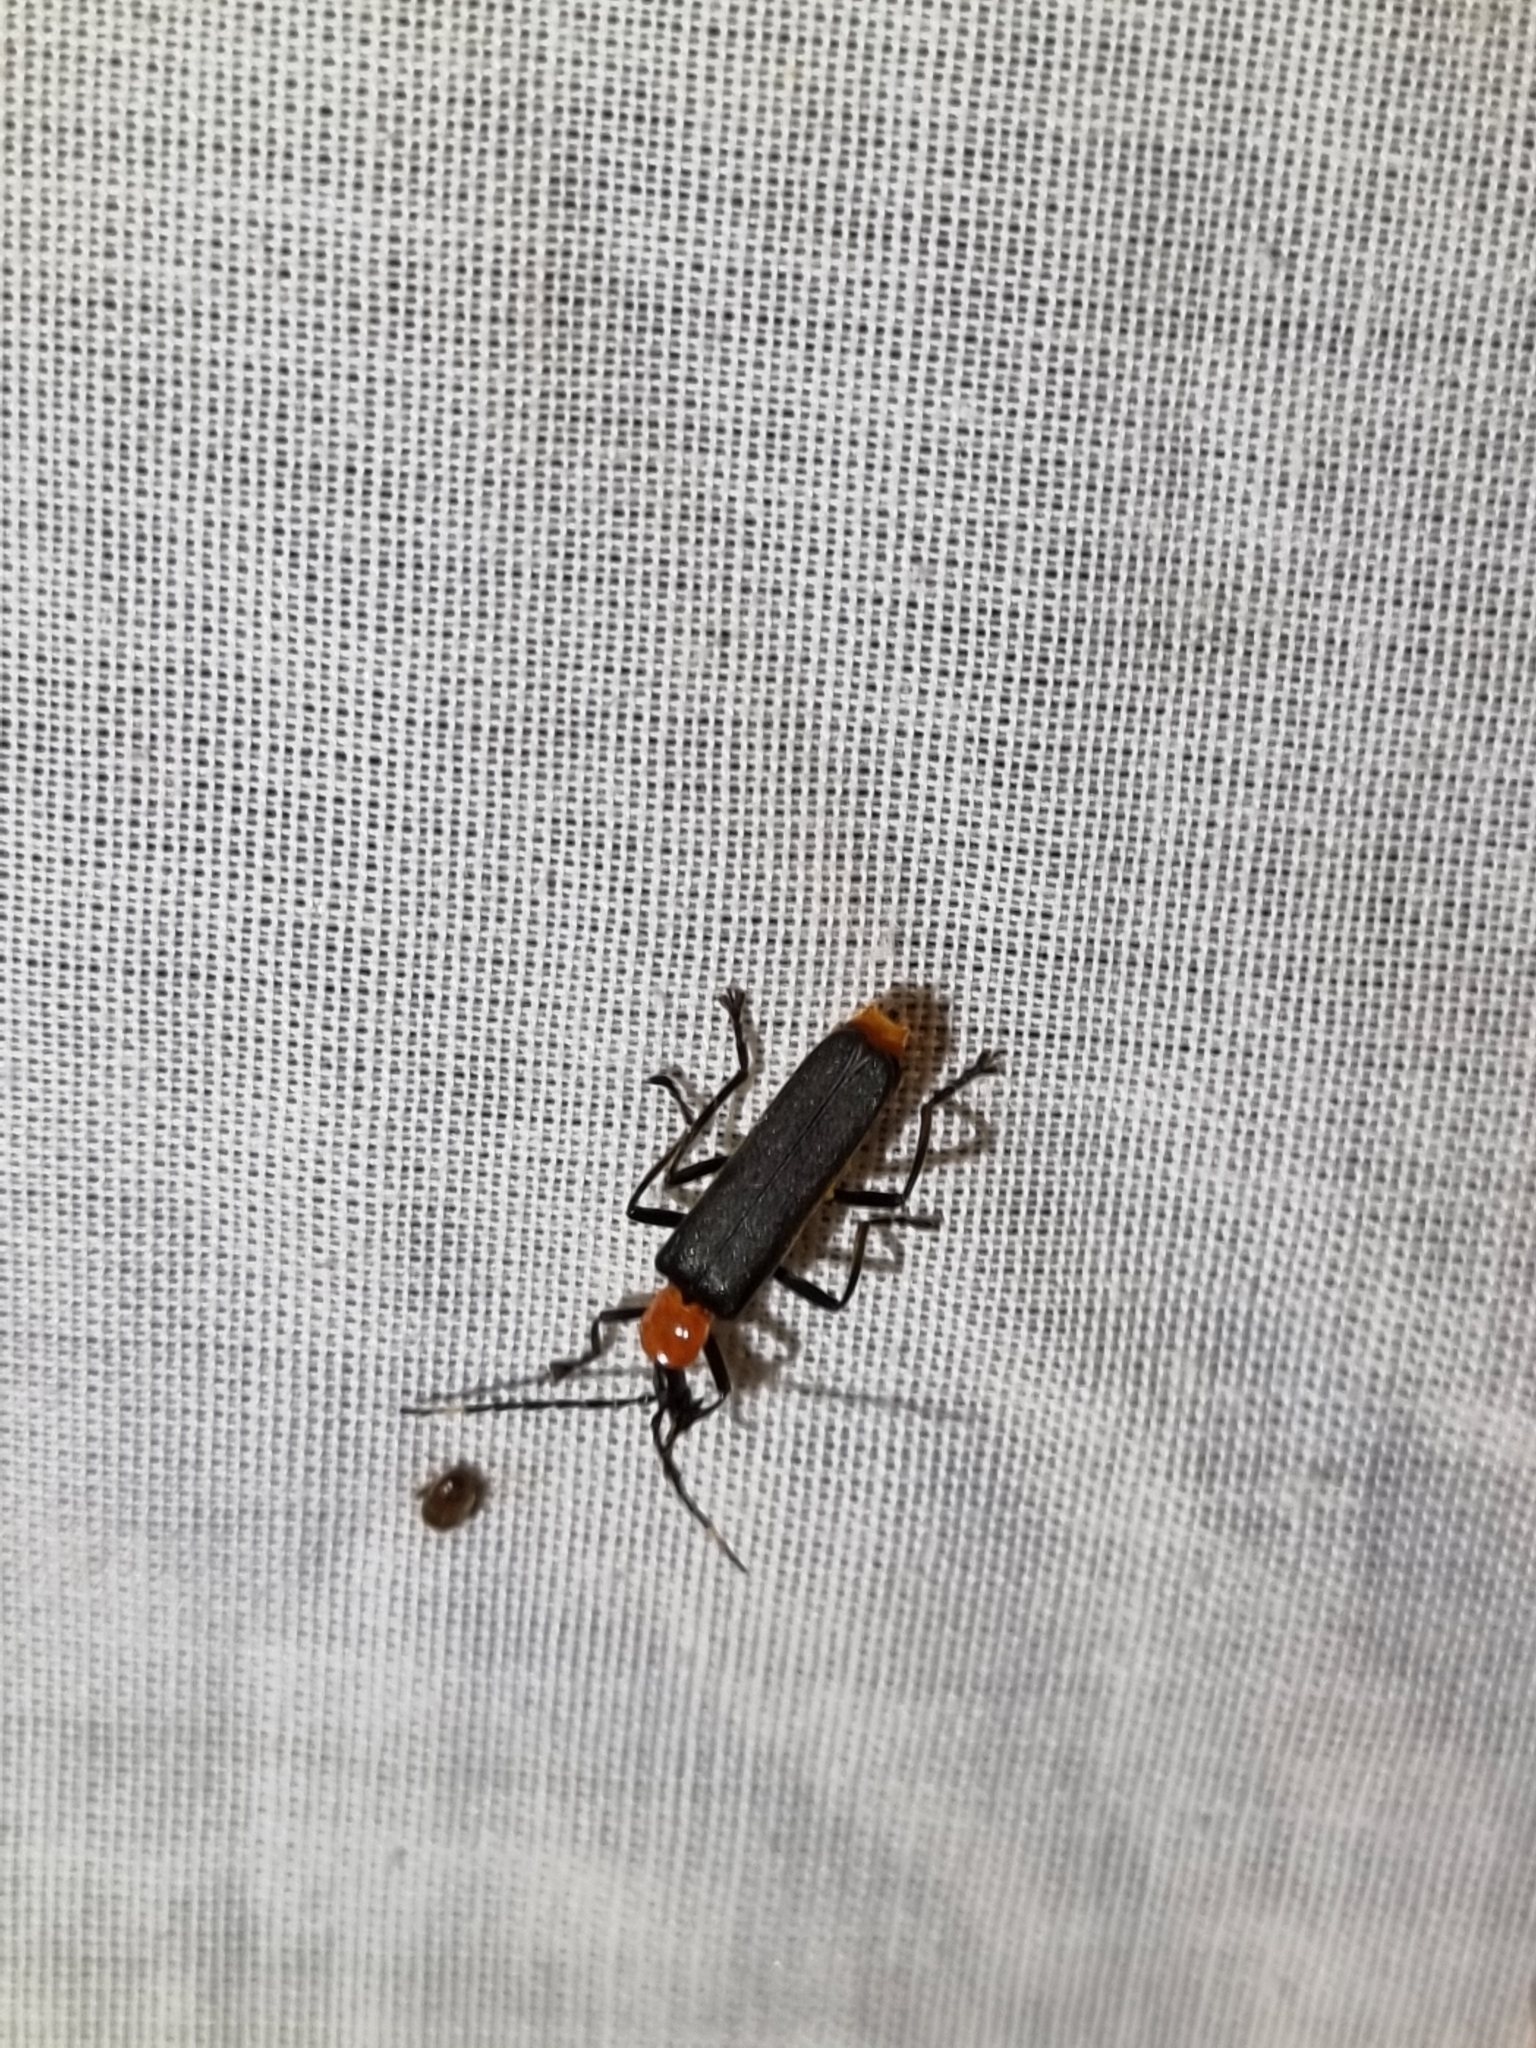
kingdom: Animalia
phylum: Arthropoda
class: Insecta
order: Coleoptera
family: Cantharidae
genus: Chauliognathus
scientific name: Chauliognathus
